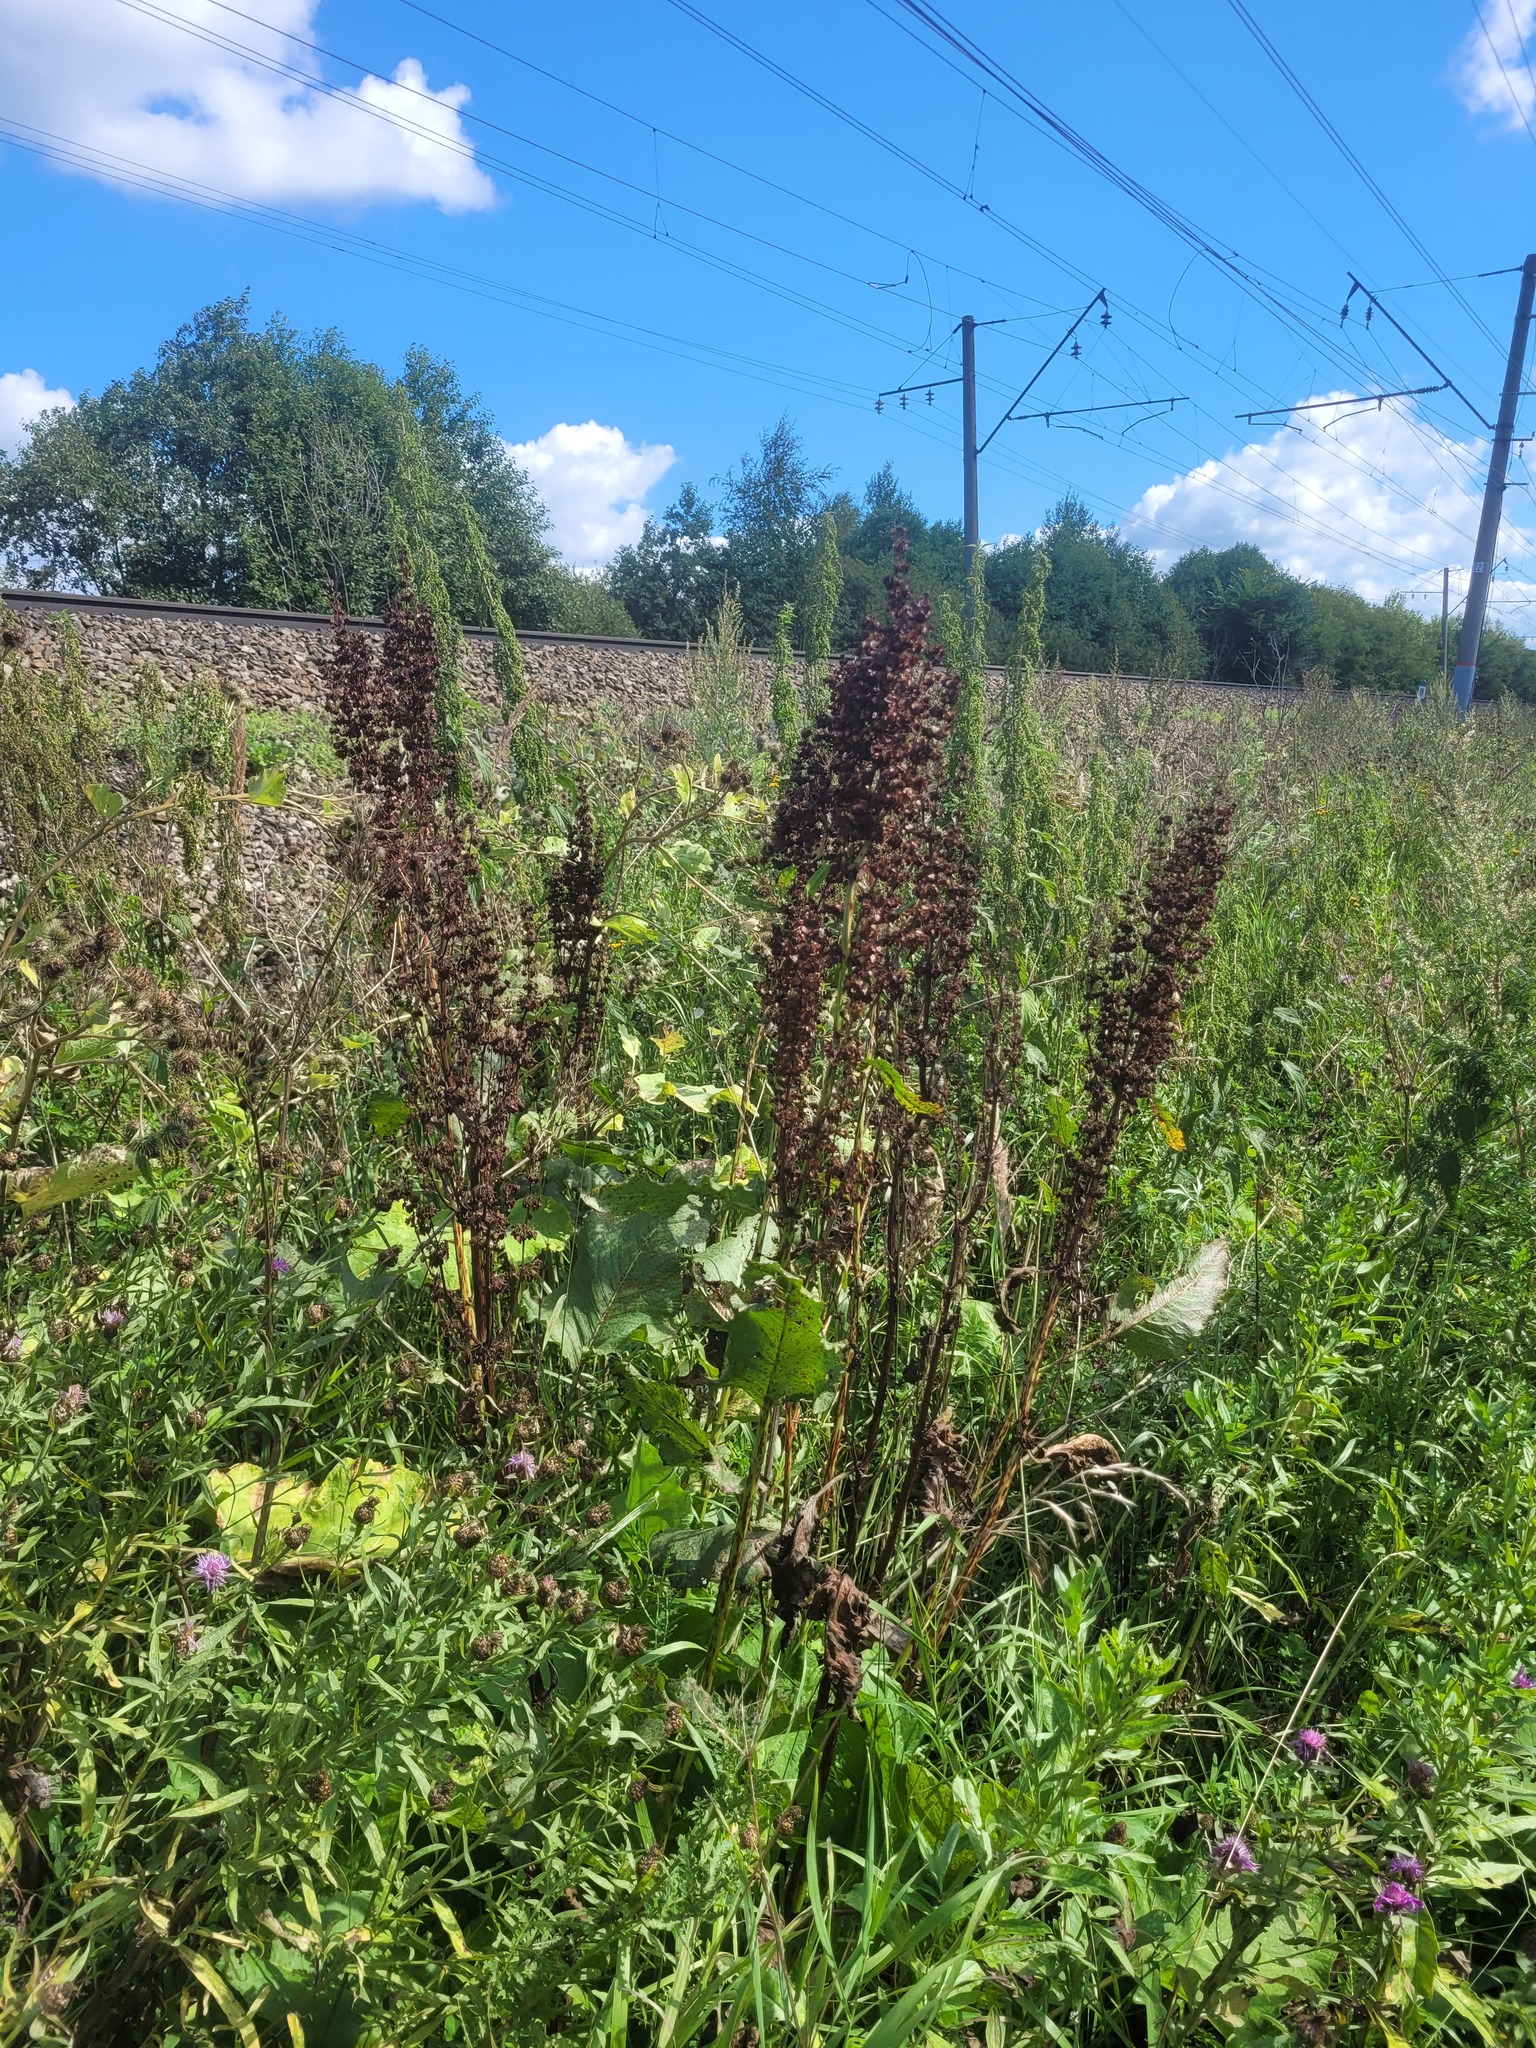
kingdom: Plantae
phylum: Tracheophyta
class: Magnoliopsida
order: Caryophyllales
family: Polygonaceae
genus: Rumex
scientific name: Rumex confertus
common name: Russian dock
